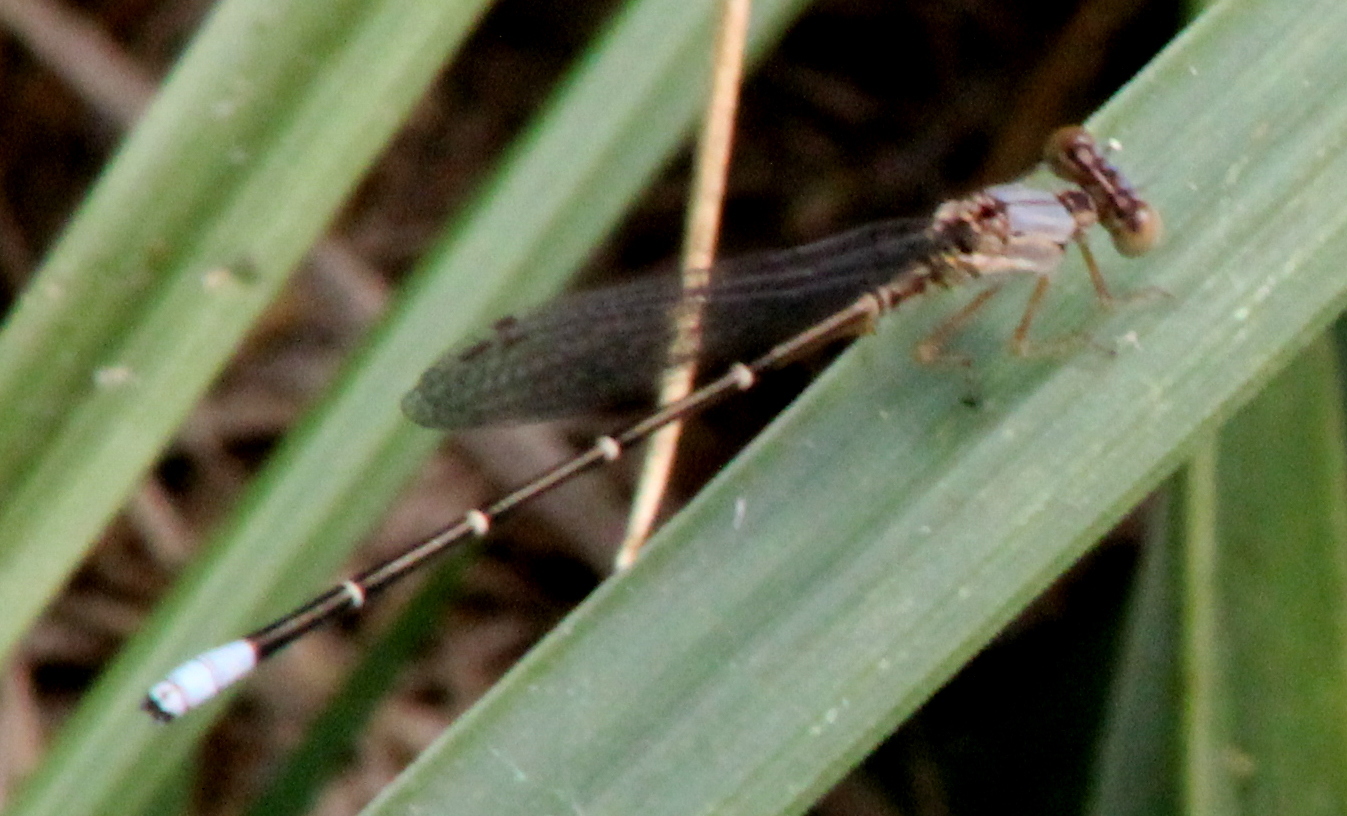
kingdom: Animalia
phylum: Arthropoda
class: Insecta
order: Odonata
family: Coenagrionidae
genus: Argia
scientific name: Argia apicalis
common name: Blue-fronted dancer
